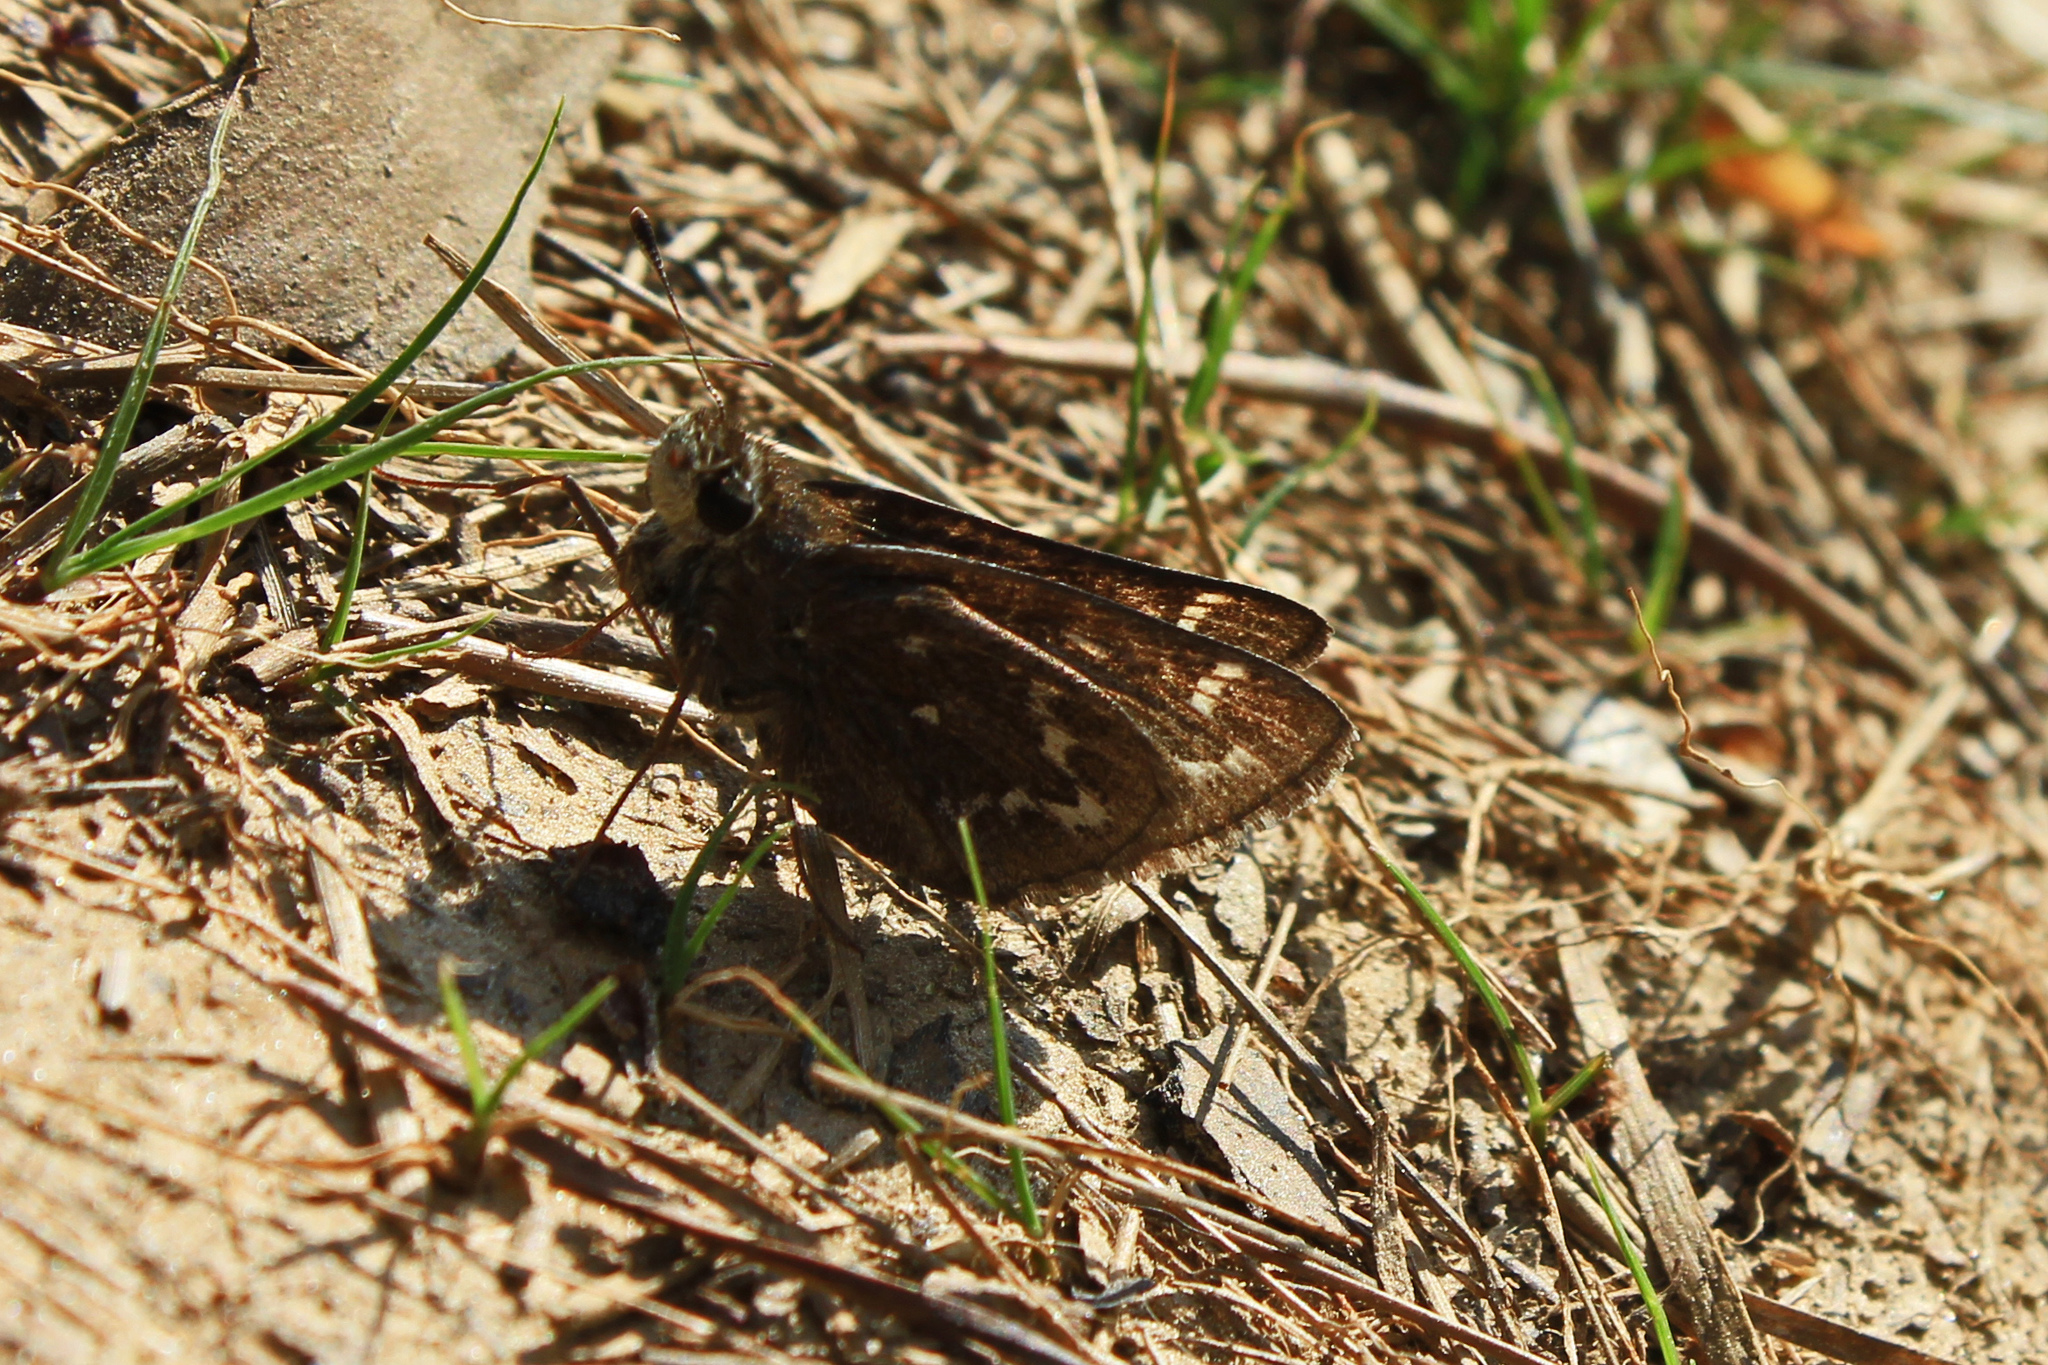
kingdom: Animalia
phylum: Arthropoda
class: Insecta
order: Lepidoptera
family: Hesperiidae
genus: Hesperia
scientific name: Hesperia metea
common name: Cobweb skipper
